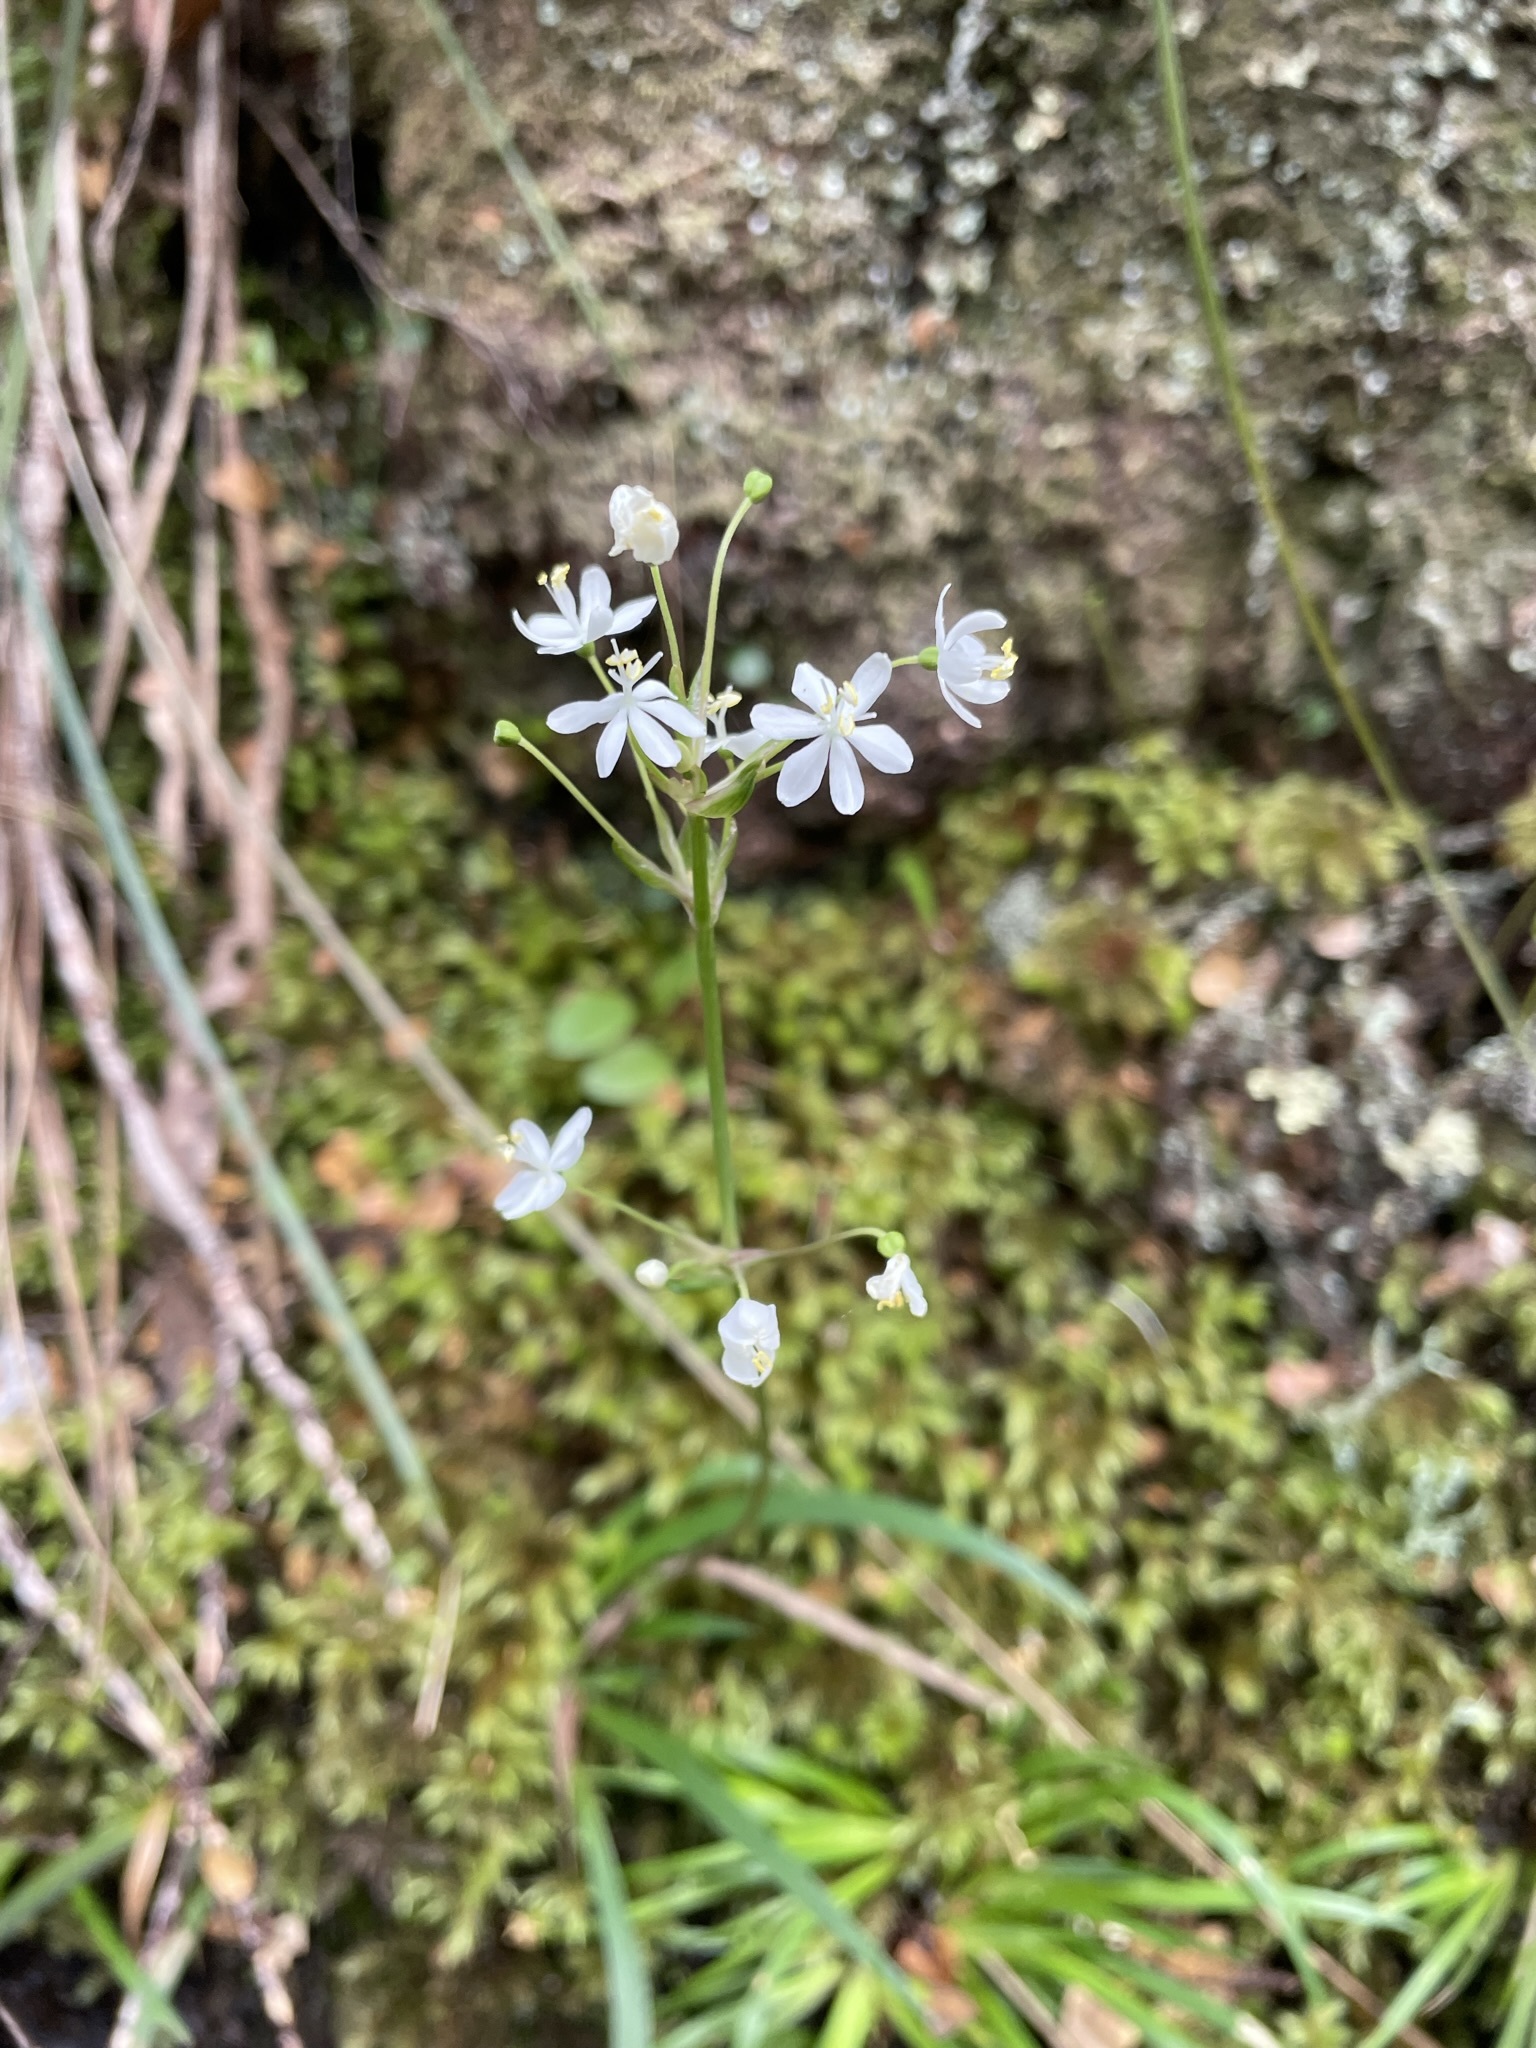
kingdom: Plantae
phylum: Tracheophyta
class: Liliopsida
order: Asparagales
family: Iridaceae
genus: Libertia
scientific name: Libertia pulchella
